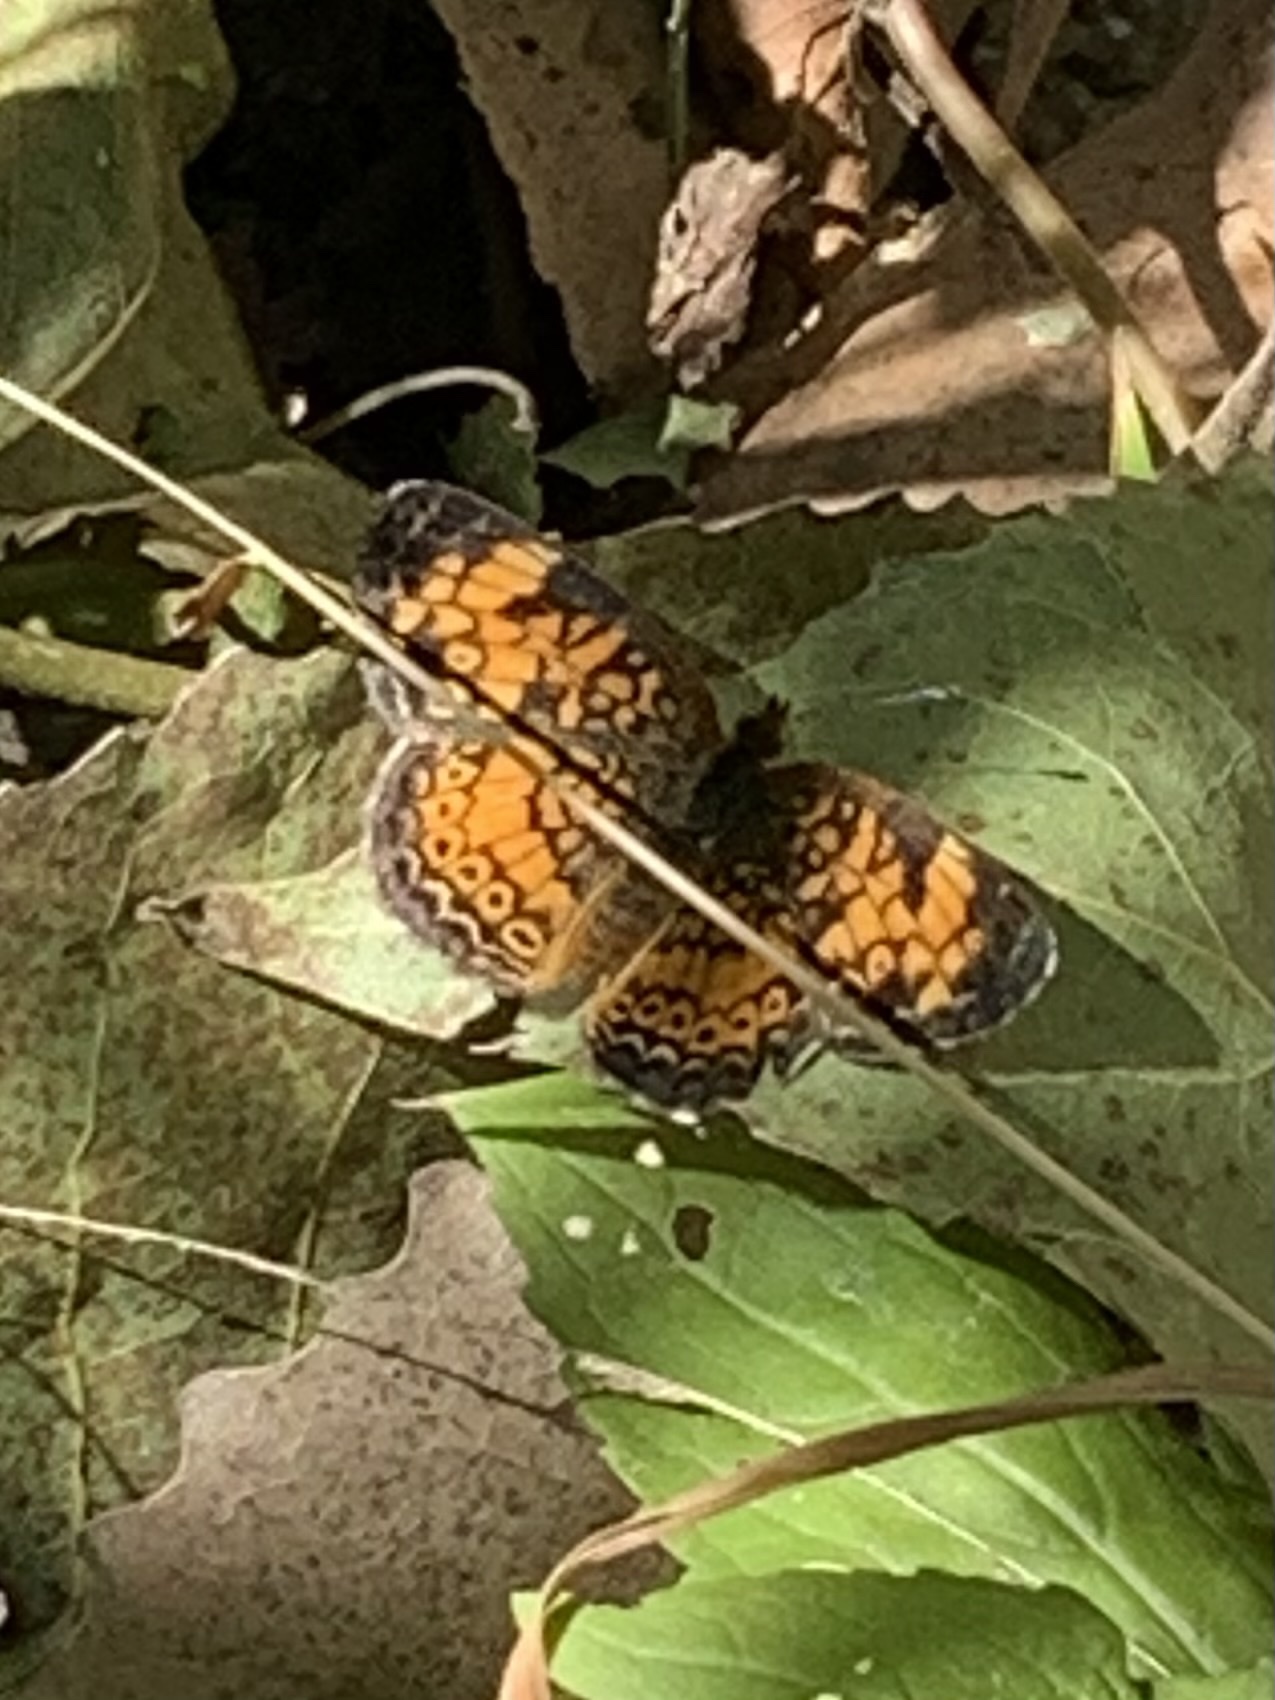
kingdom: Animalia
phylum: Arthropoda
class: Insecta
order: Lepidoptera
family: Nymphalidae
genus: Phyciodes
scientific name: Phyciodes tharos
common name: Pearl crescent
